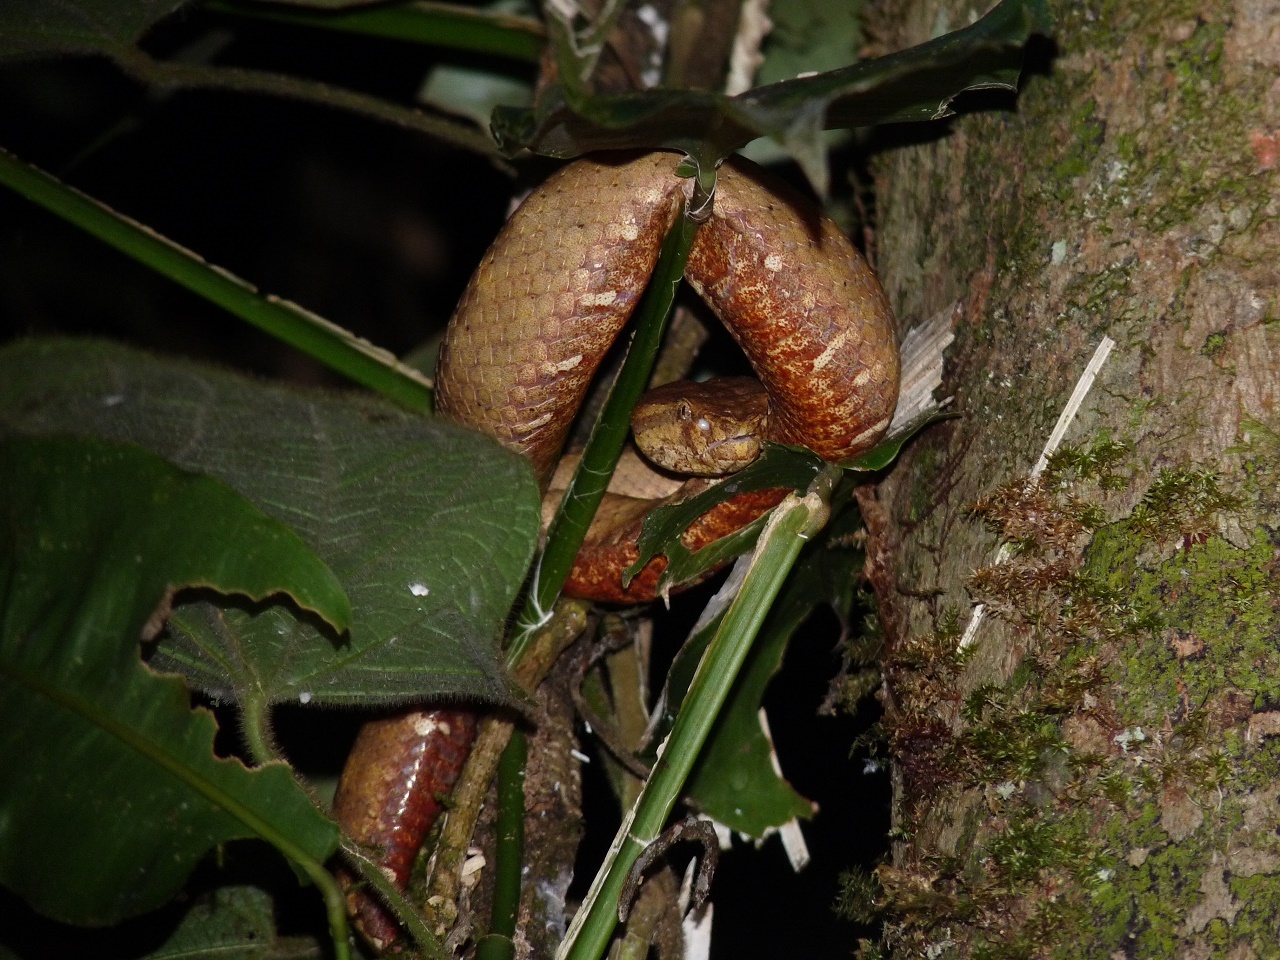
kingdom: Animalia
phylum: Chordata
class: Squamata
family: Viperidae
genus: Craspedocephalus
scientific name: Craspedocephalus borneensis
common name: Borneo pit viper
